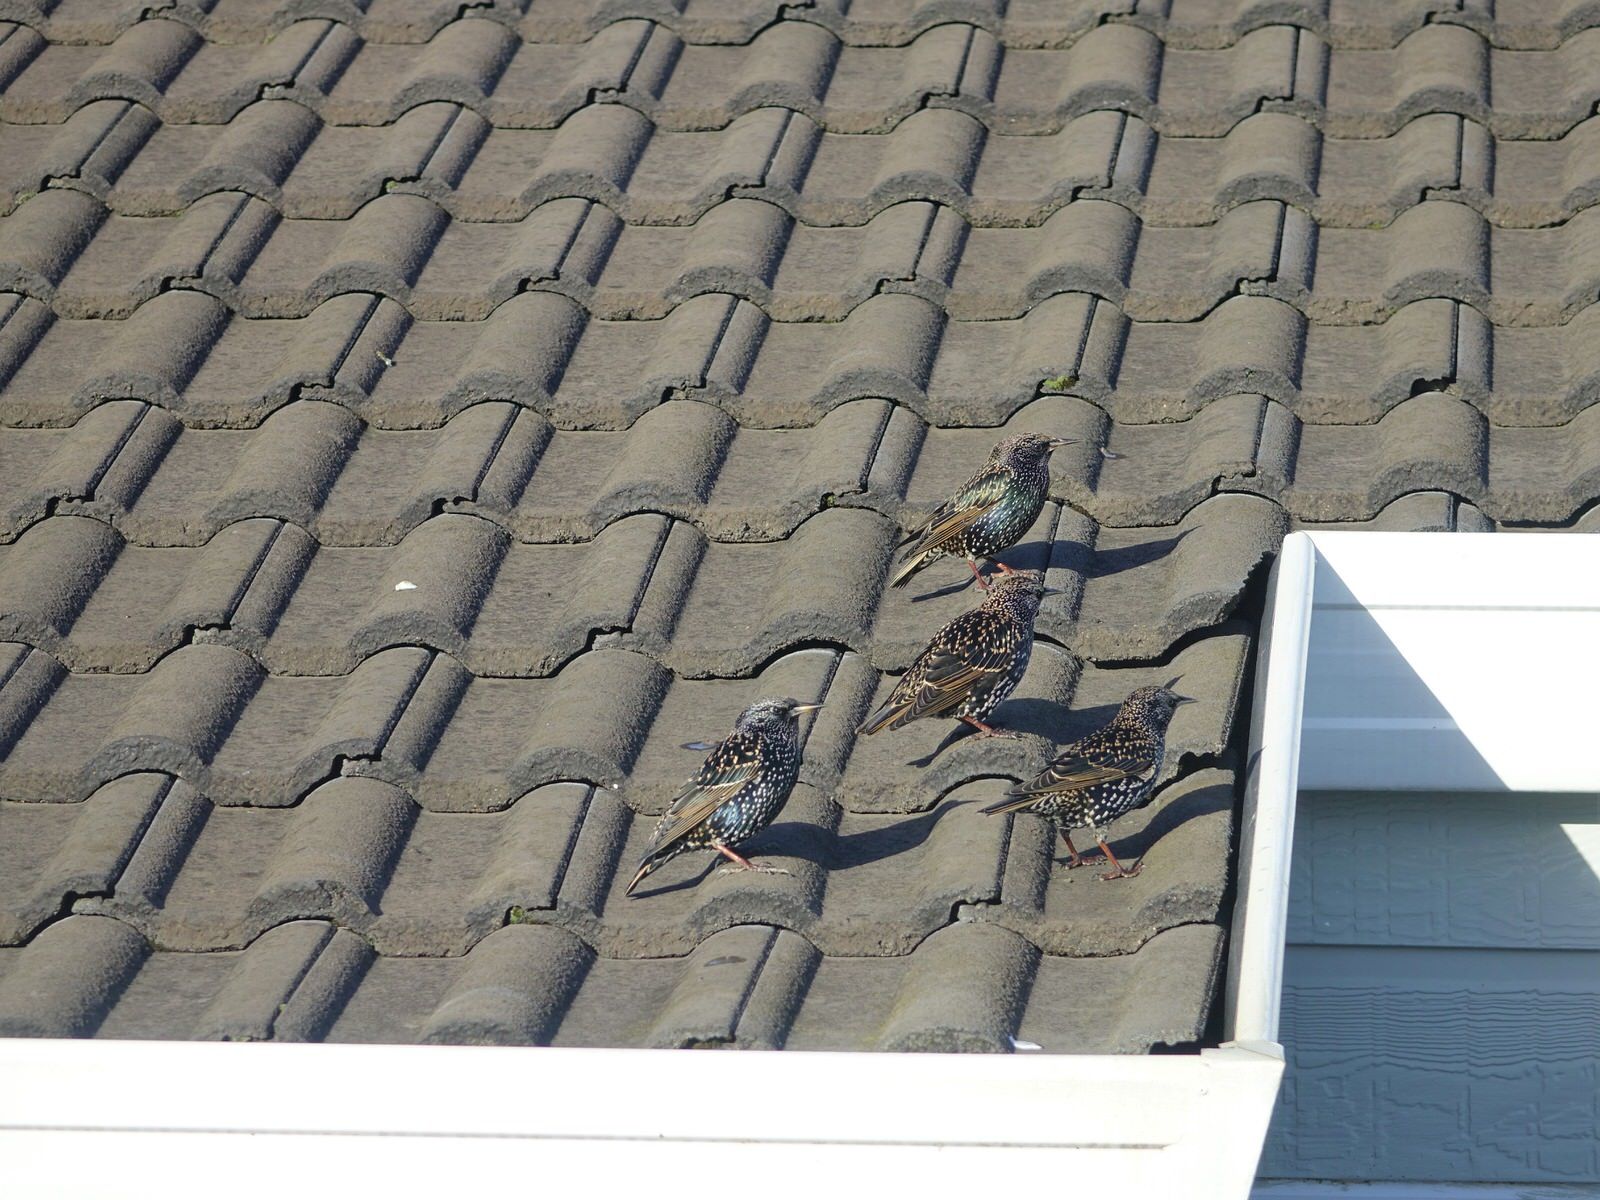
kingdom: Animalia
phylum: Chordata
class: Aves
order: Passeriformes
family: Sturnidae
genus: Sturnus
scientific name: Sturnus vulgaris
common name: Common starling
